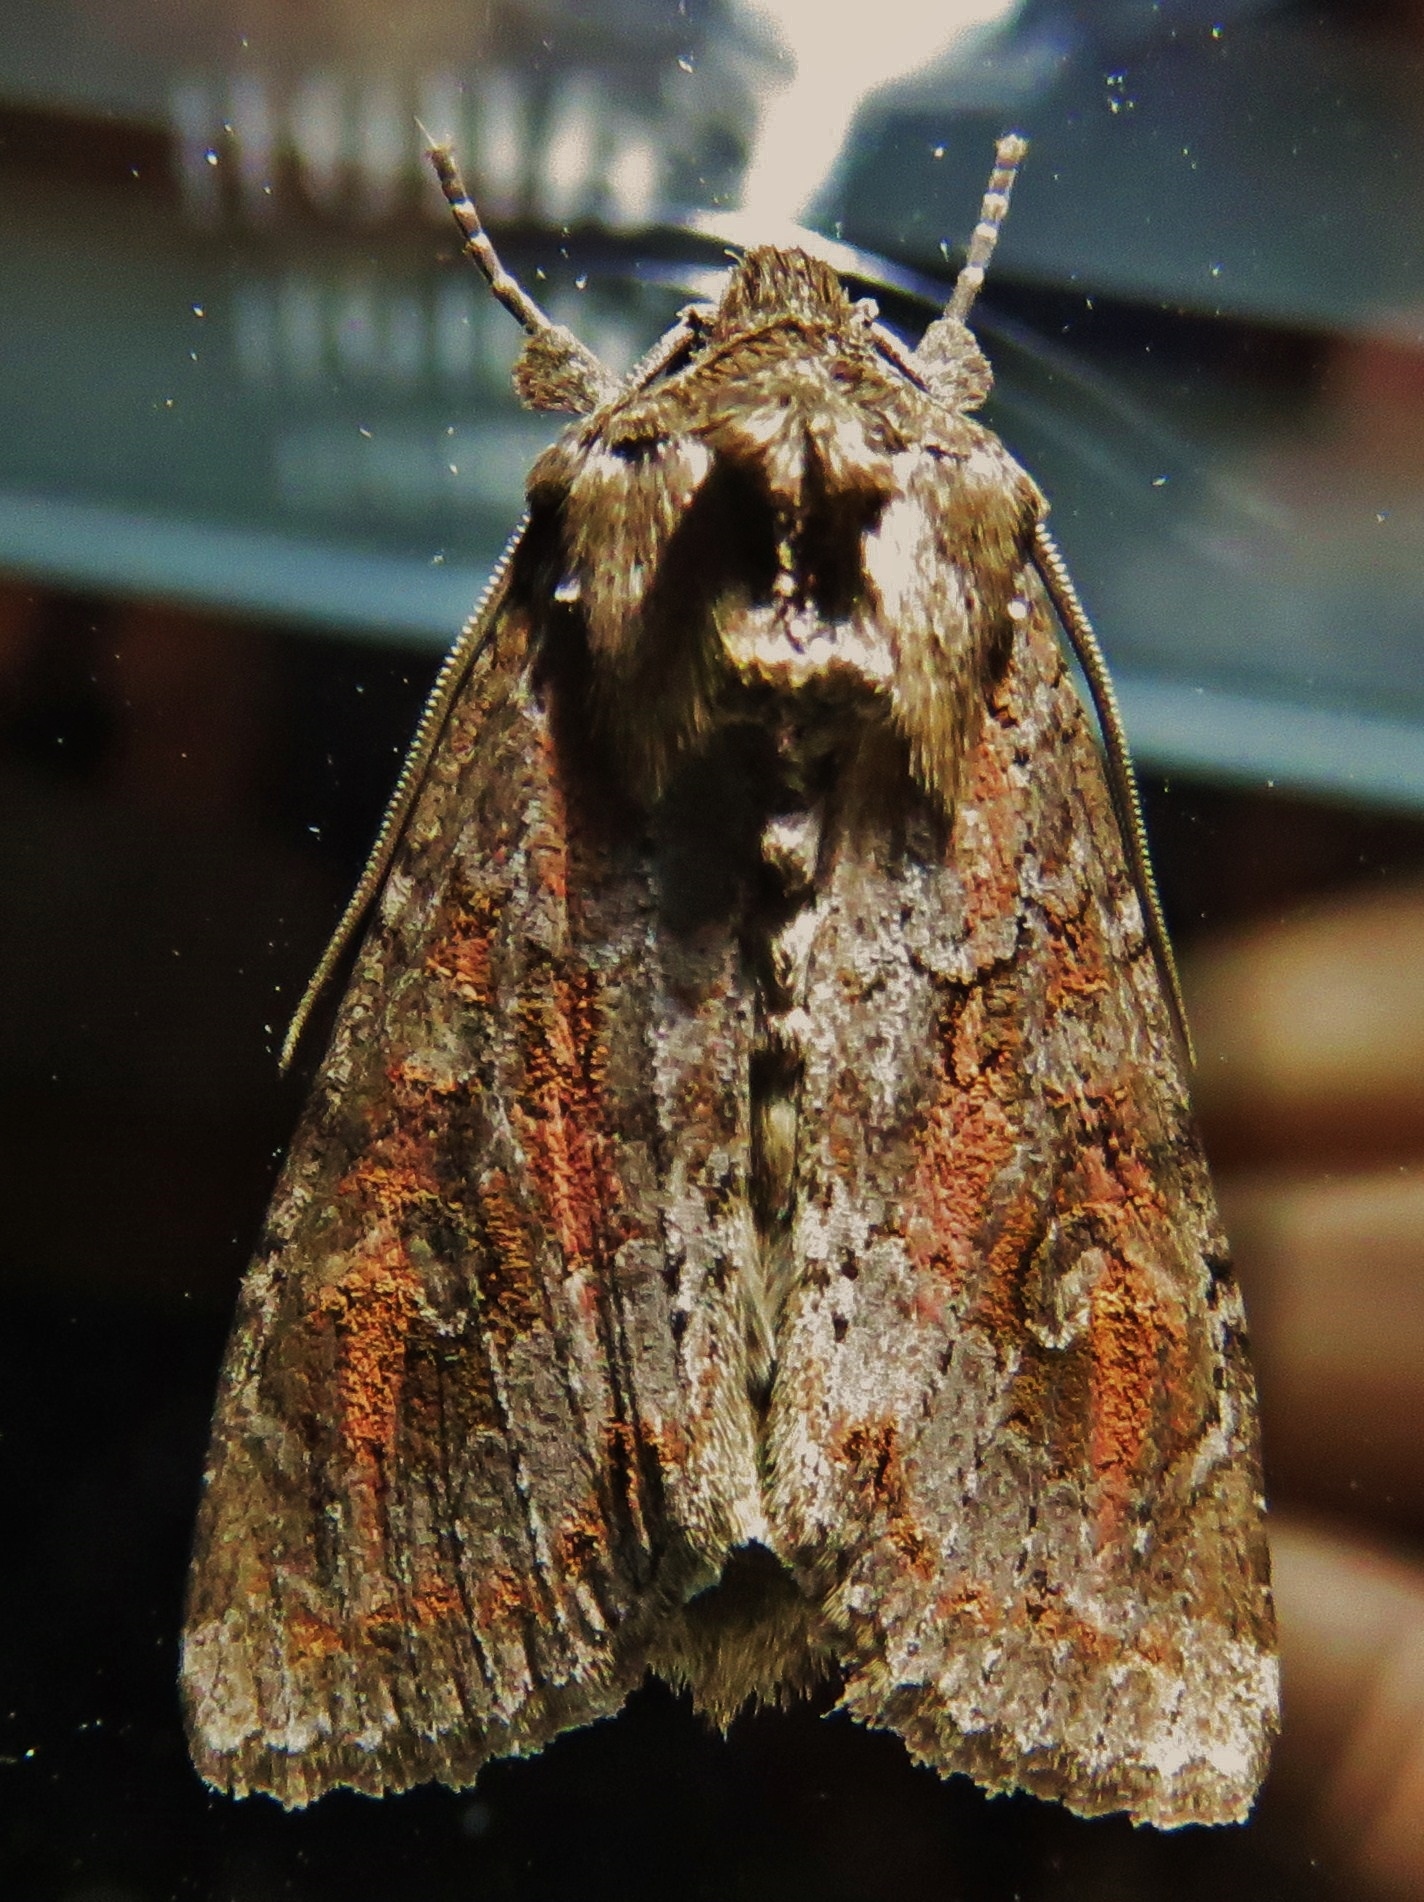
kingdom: Animalia
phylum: Arthropoda
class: Insecta
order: Lepidoptera
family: Noctuidae
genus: Polia
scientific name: Polia bombycina
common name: Pale shining brown
